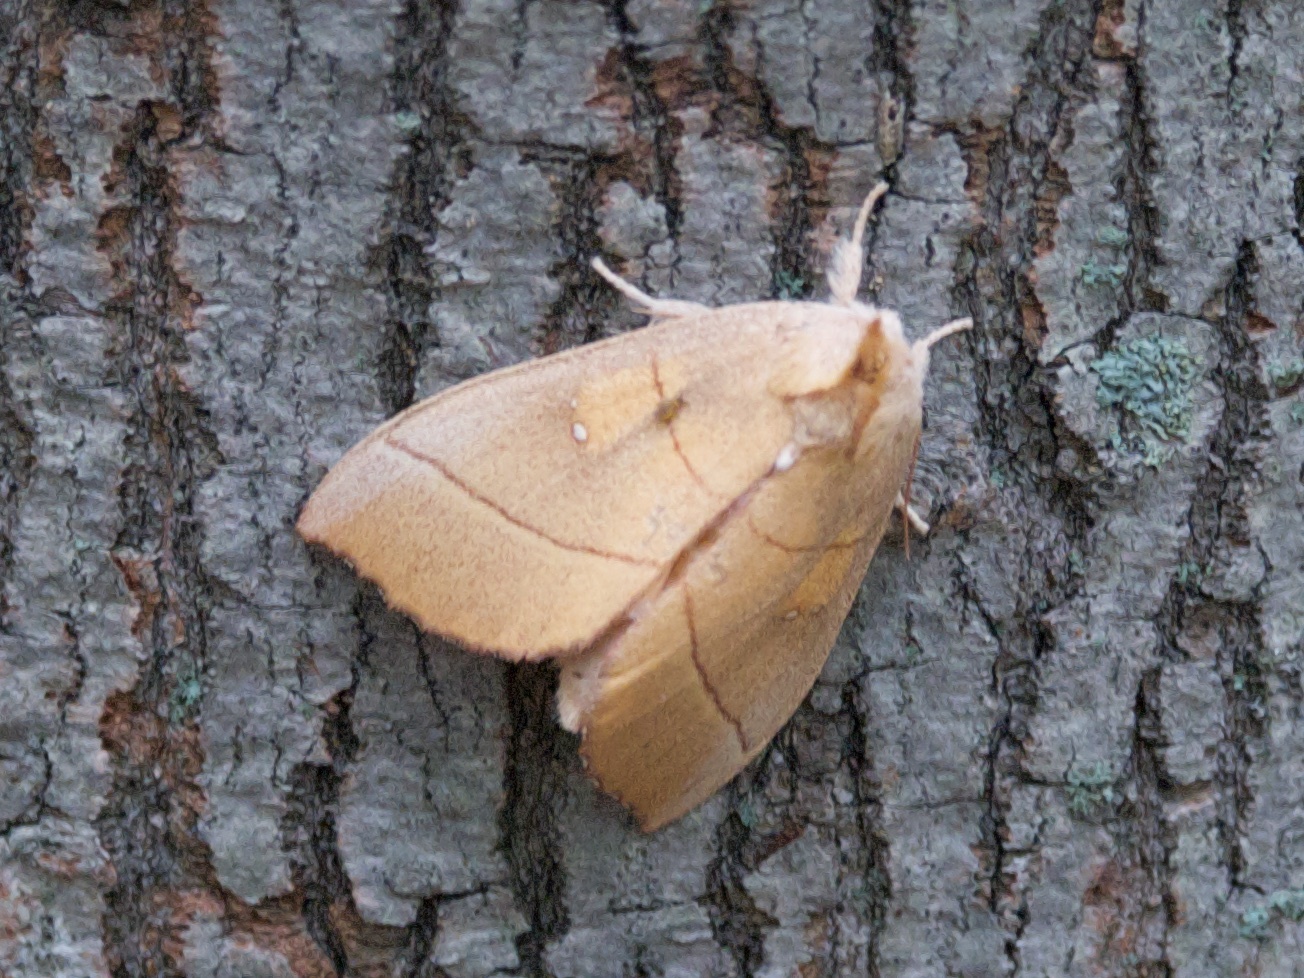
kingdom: Animalia
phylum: Arthropoda
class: Insecta
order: Lepidoptera
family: Notodontidae
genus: Nadata
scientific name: Nadata gibbosa
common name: White-dotted prominent
